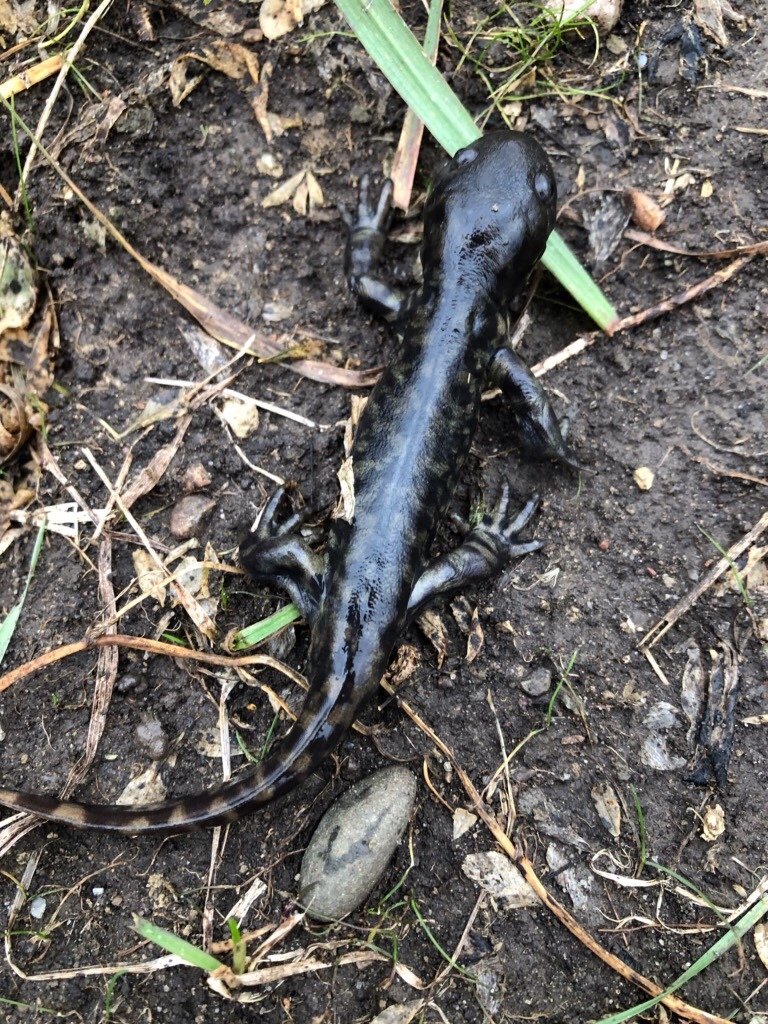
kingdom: Animalia
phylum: Chordata
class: Amphibia
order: Caudata
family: Ambystomatidae
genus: Ambystoma
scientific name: Ambystoma mavortium
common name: Western tiger salamander
